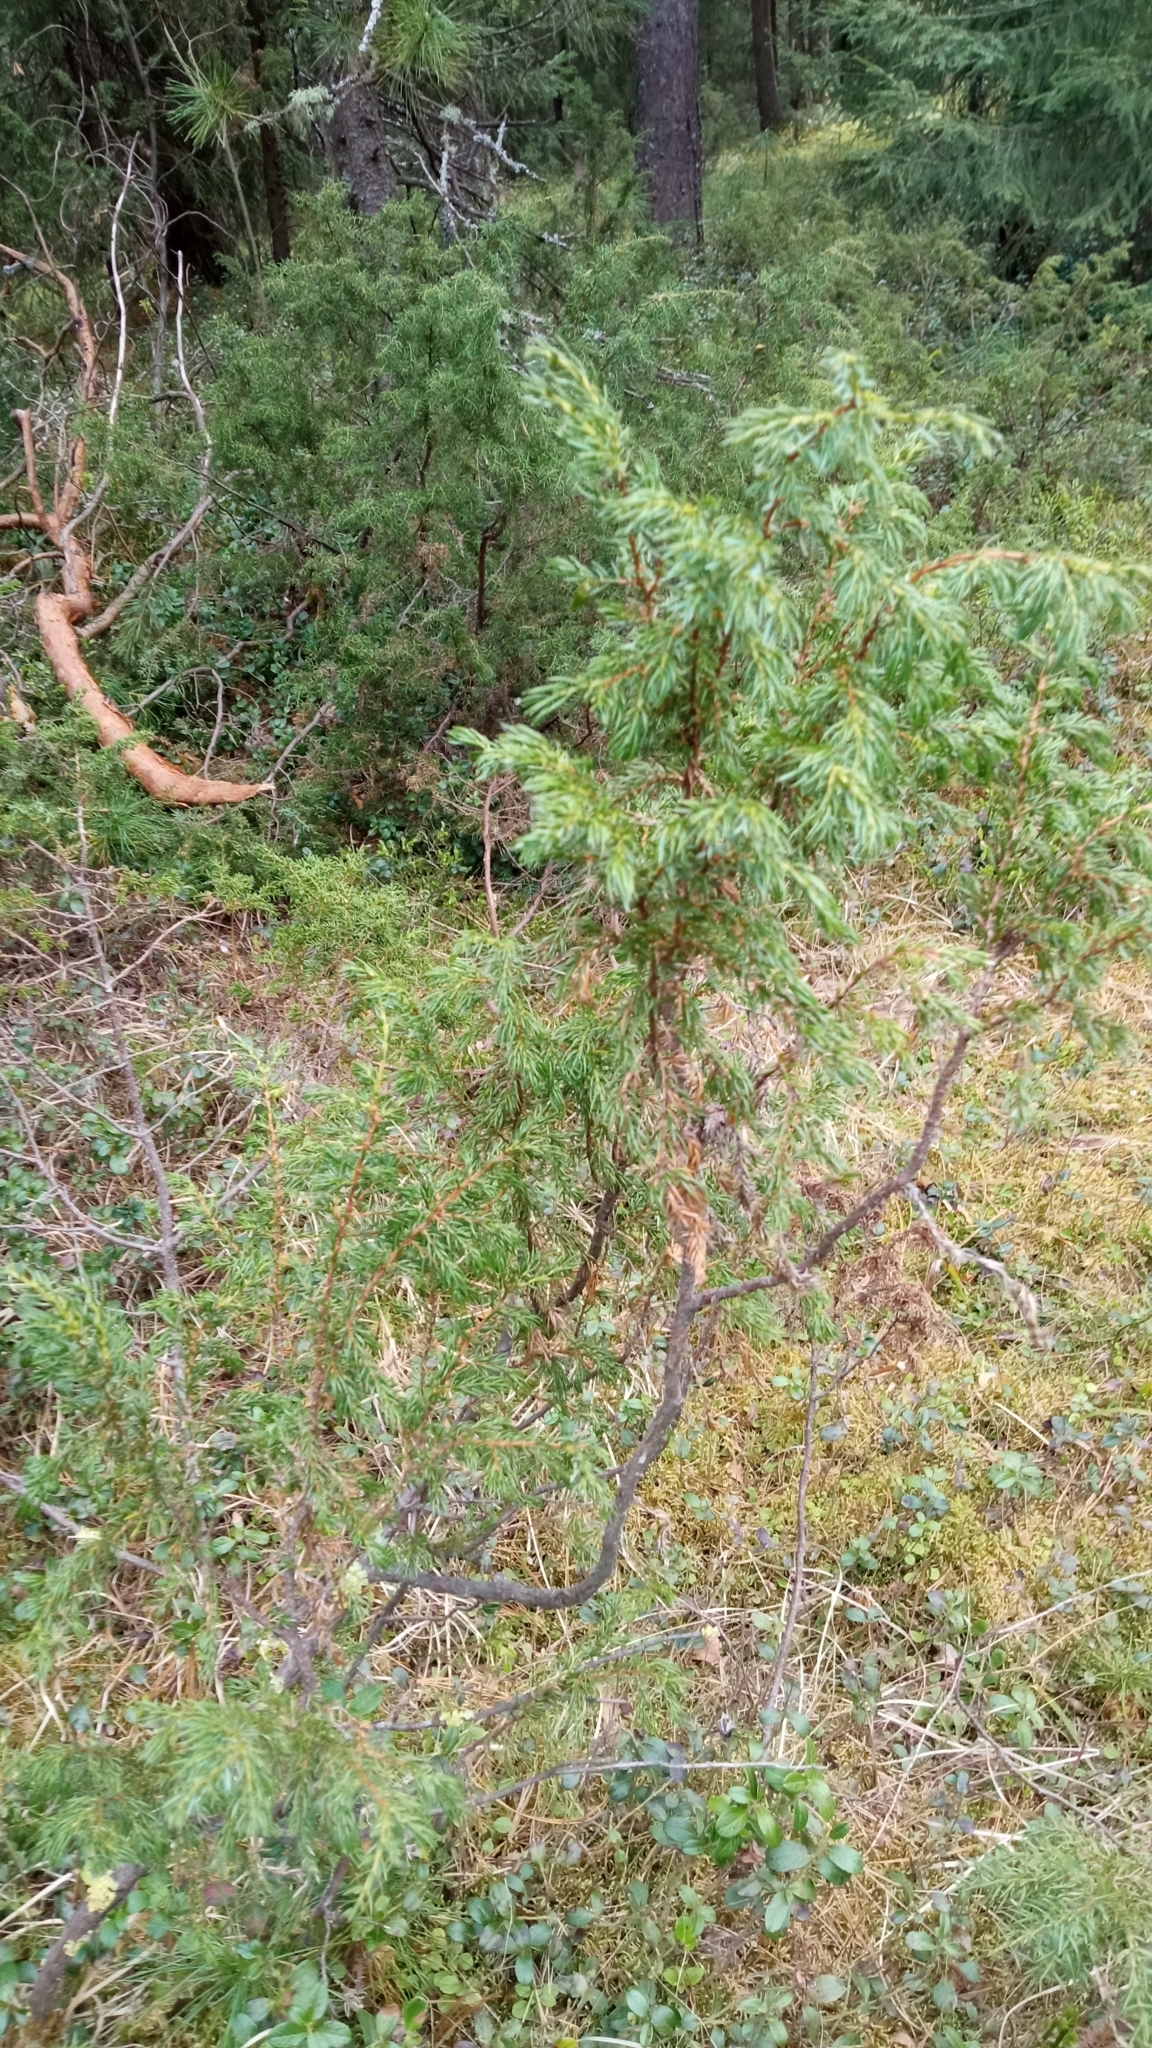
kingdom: Plantae
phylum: Tracheophyta
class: Pinopsida
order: Pinales
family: Cupressaceae
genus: Juniperus
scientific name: Juniperus communis
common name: Common juniper
